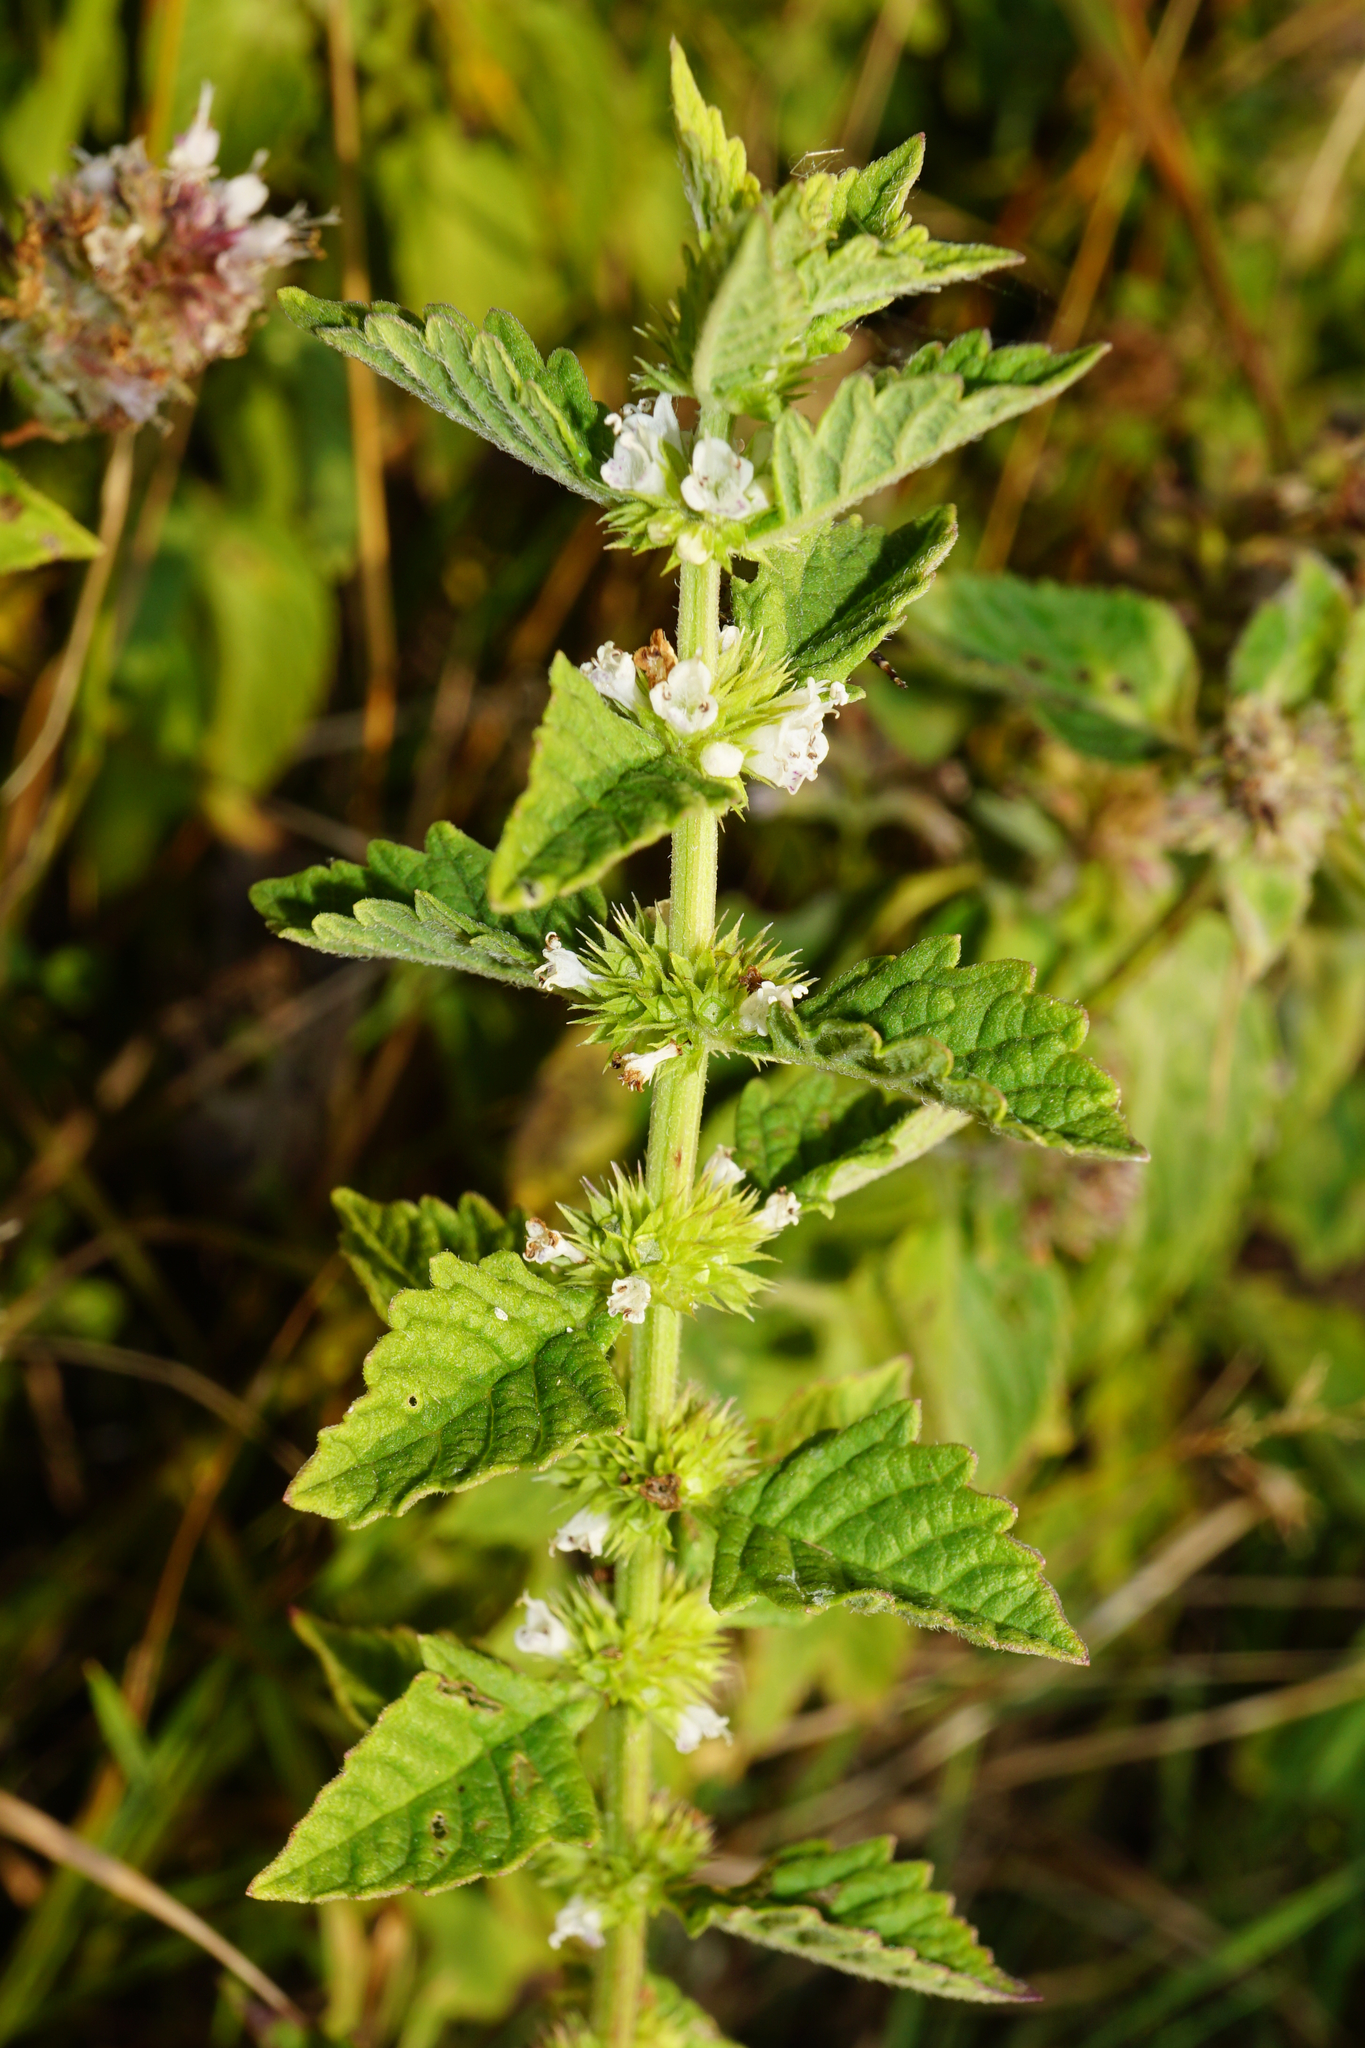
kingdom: Plantae
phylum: Tracheophyta
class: Magnoliopsida
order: Lamiales
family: Lamiaceae
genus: Lycopus
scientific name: Lycopus europaeus
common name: European bugleweed
